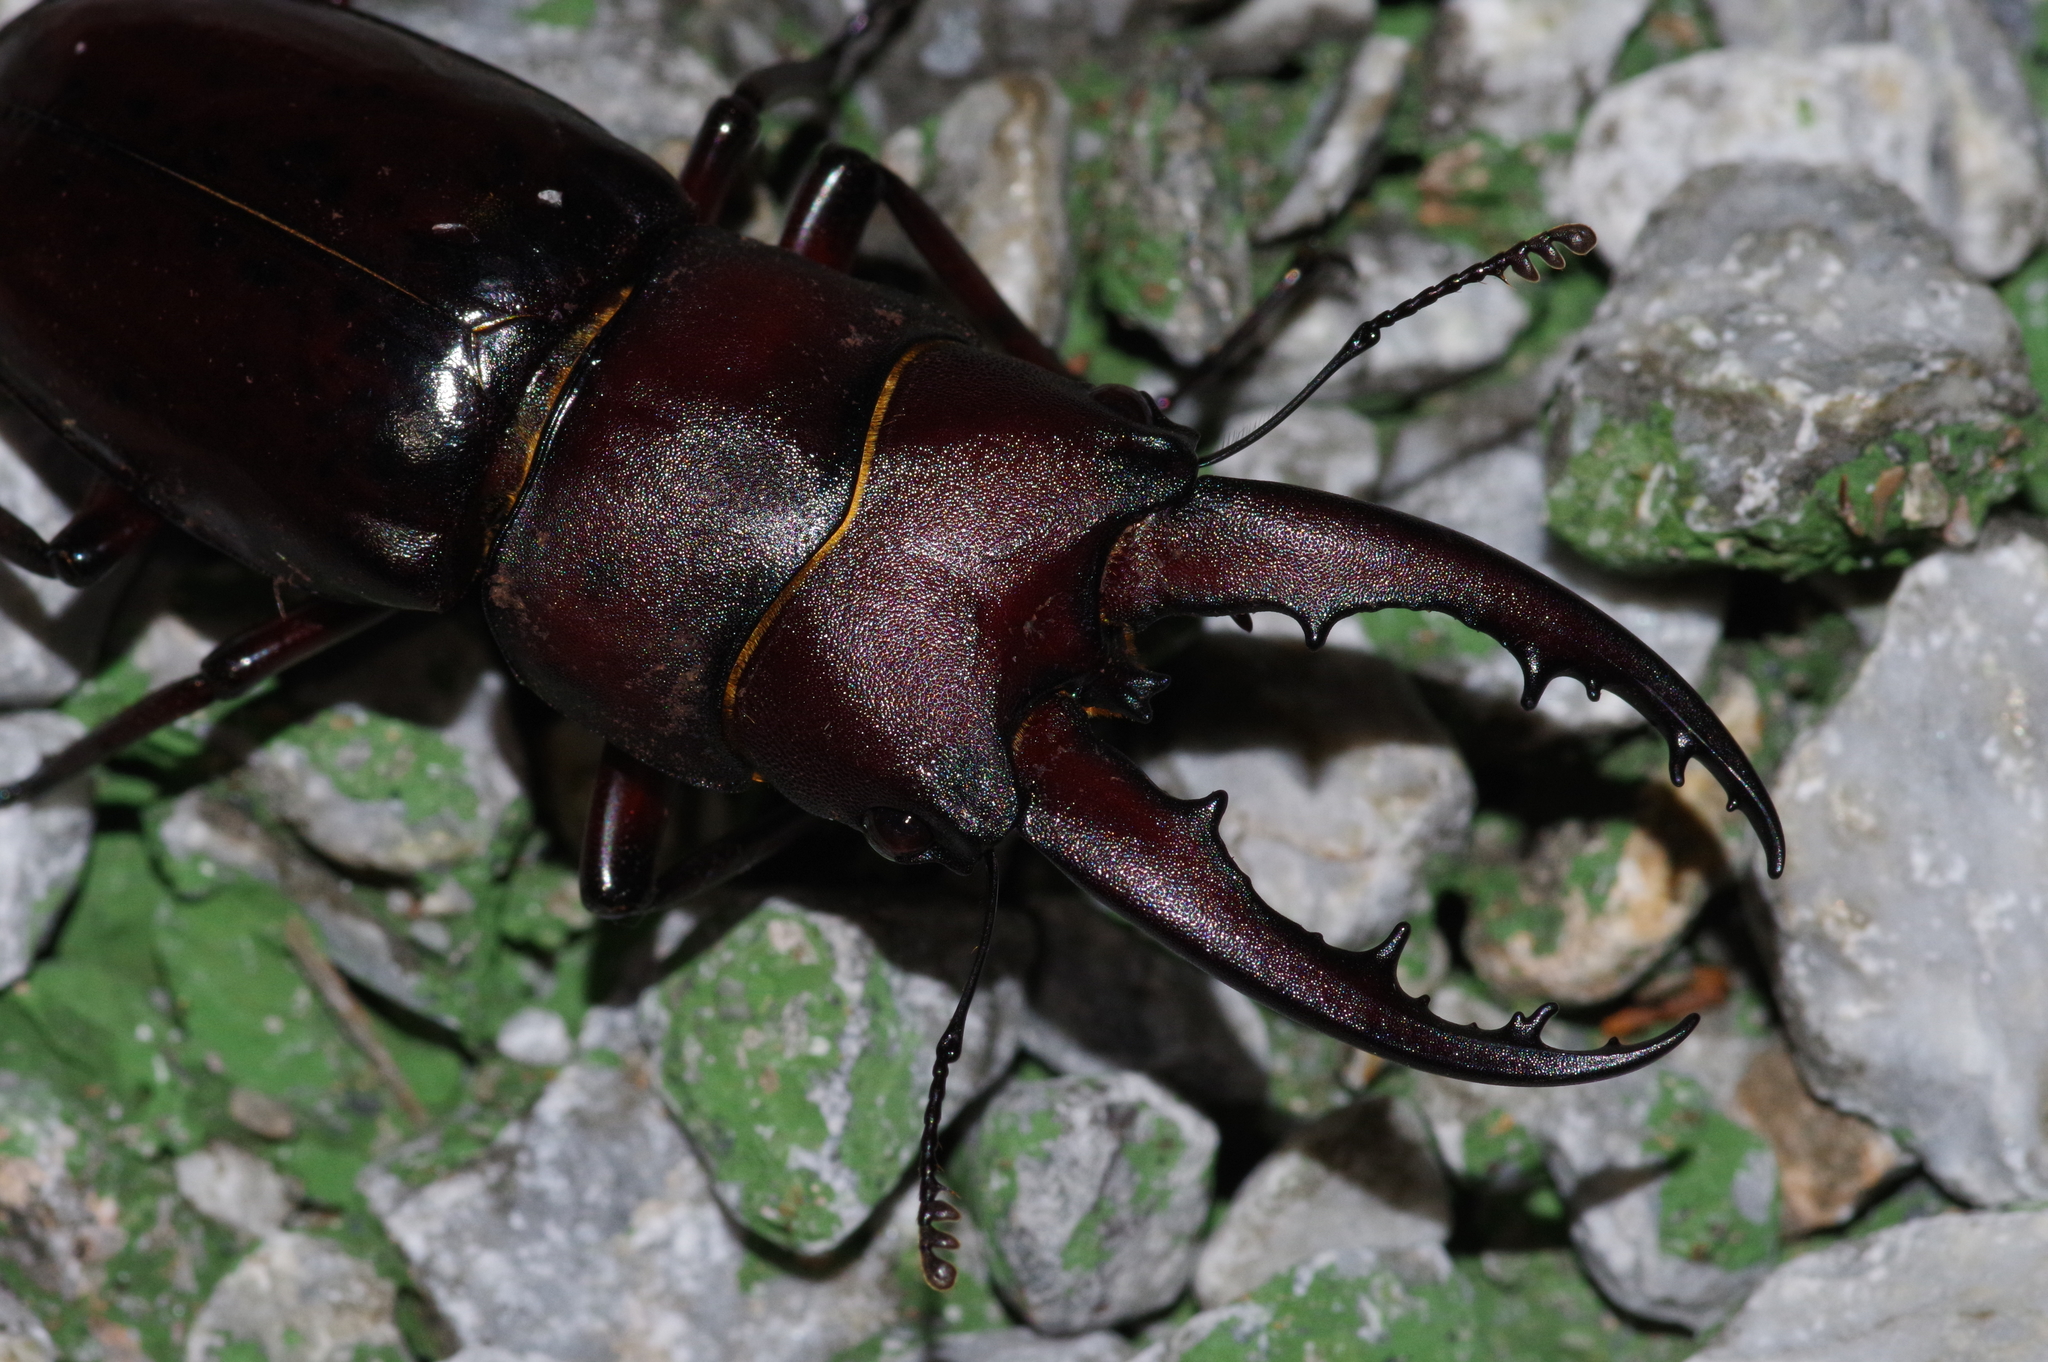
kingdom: Animalia
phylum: Arthropoda
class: Insecta
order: Coleoptera
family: Lucanidae
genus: Prosopocoilus
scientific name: Prosopocoilus dissimilis
